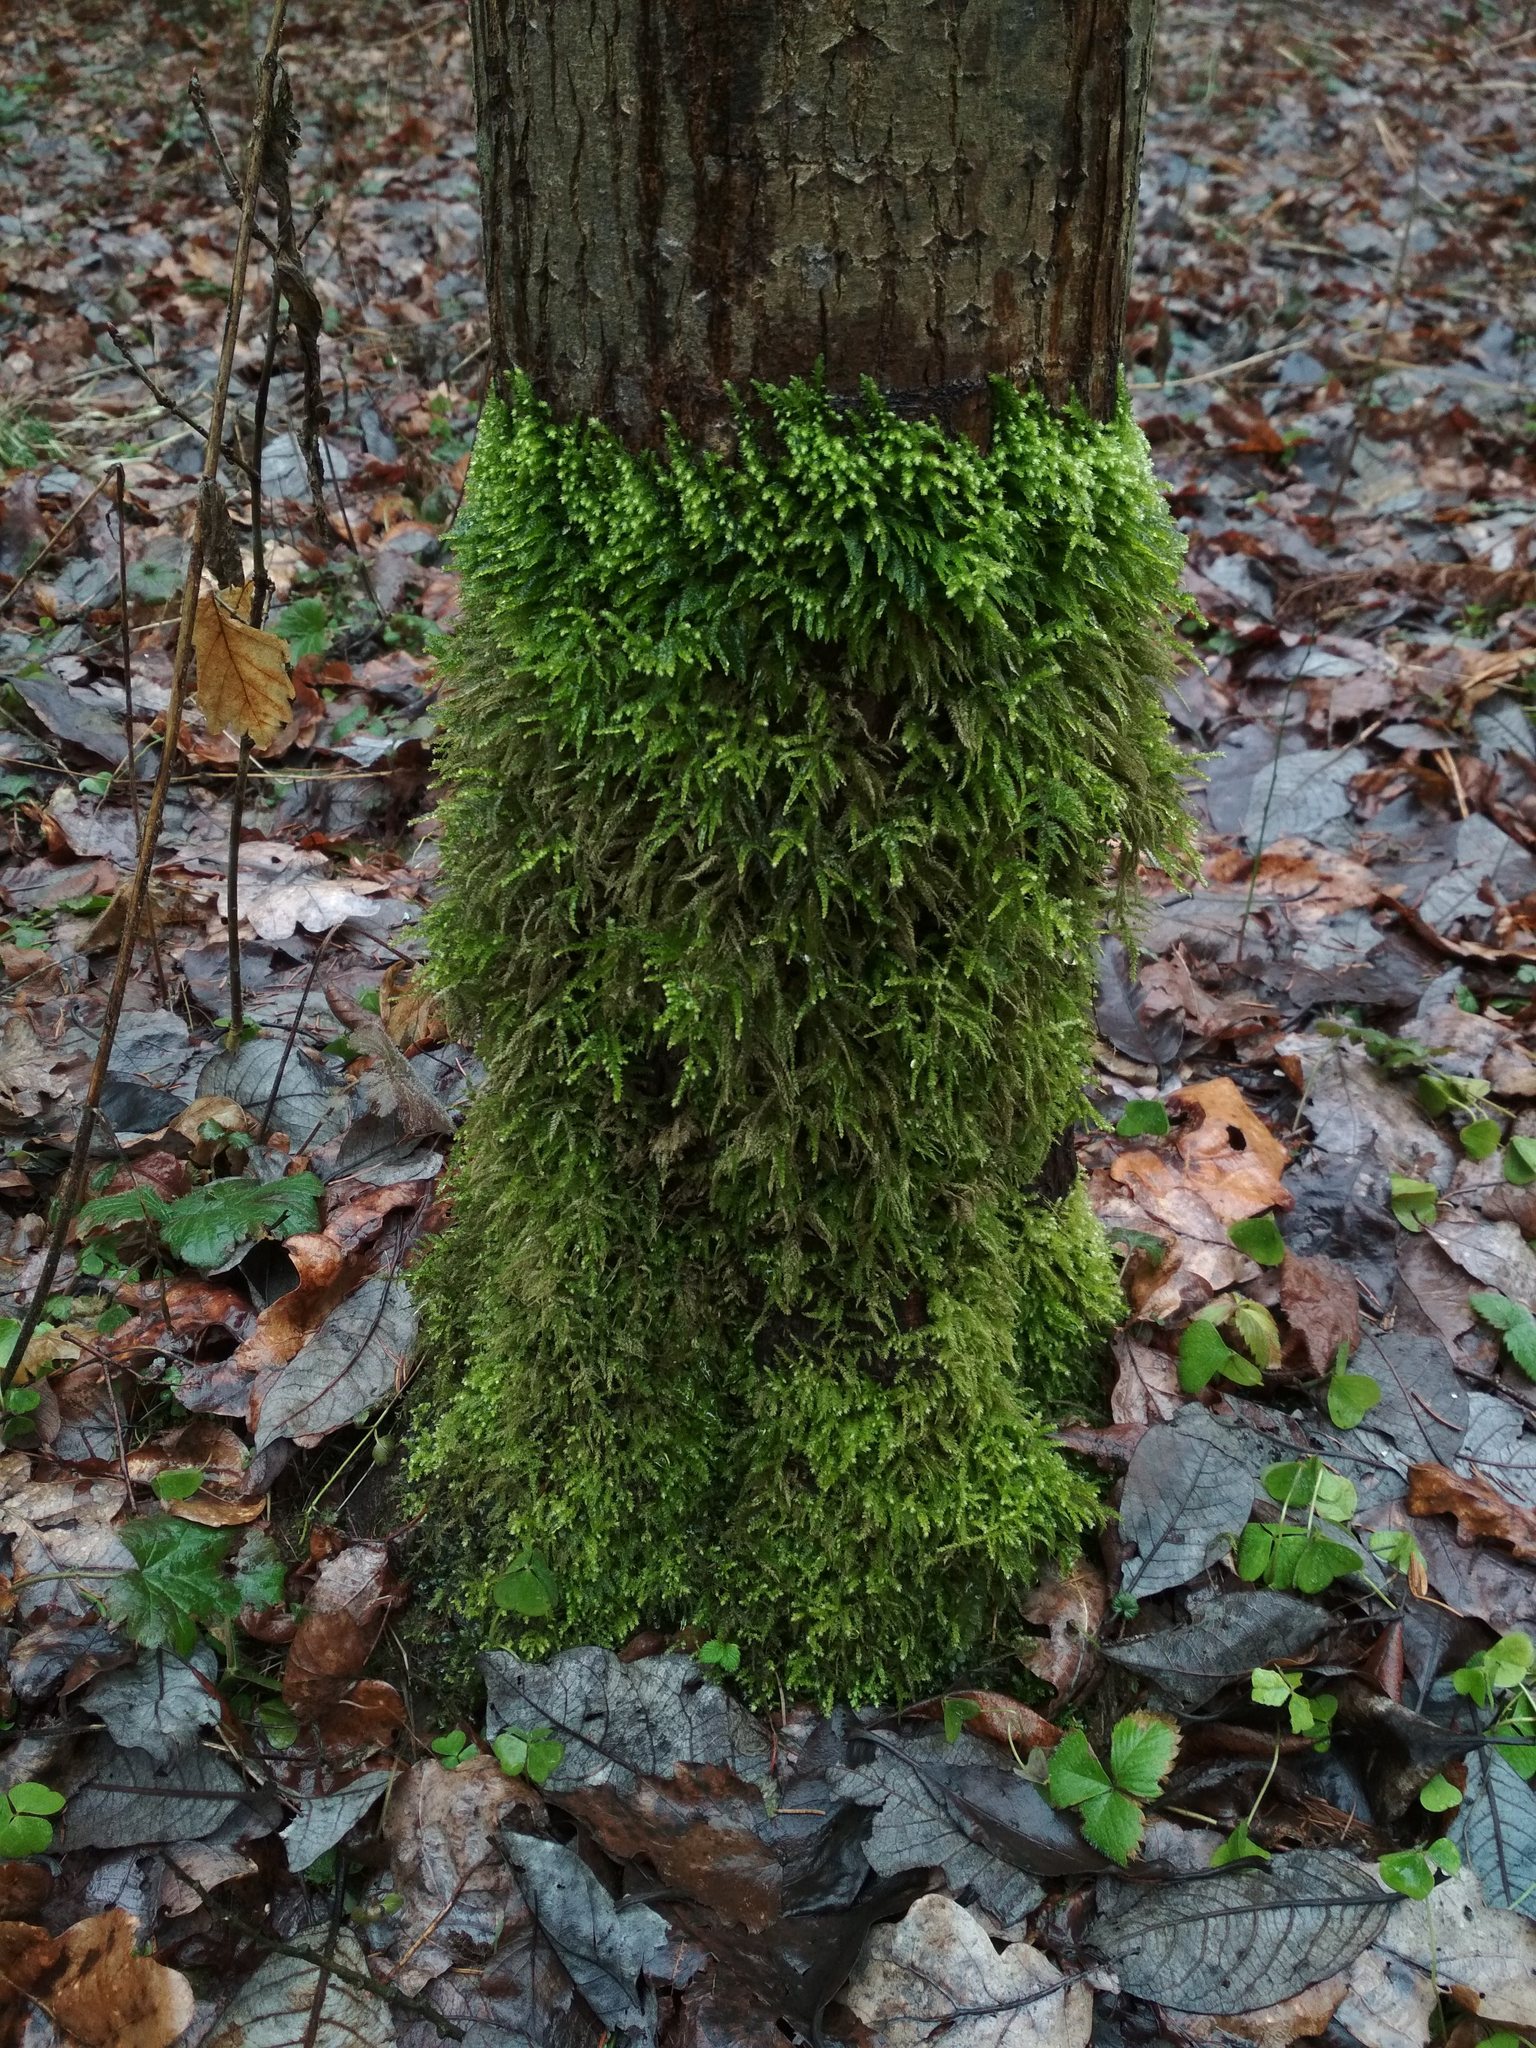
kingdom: Plantae
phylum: Bryophyta
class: Bryopsida
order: Hypnales
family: Brachytheciaceae
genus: Eurhynchium
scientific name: Eurhynchium angustirete
